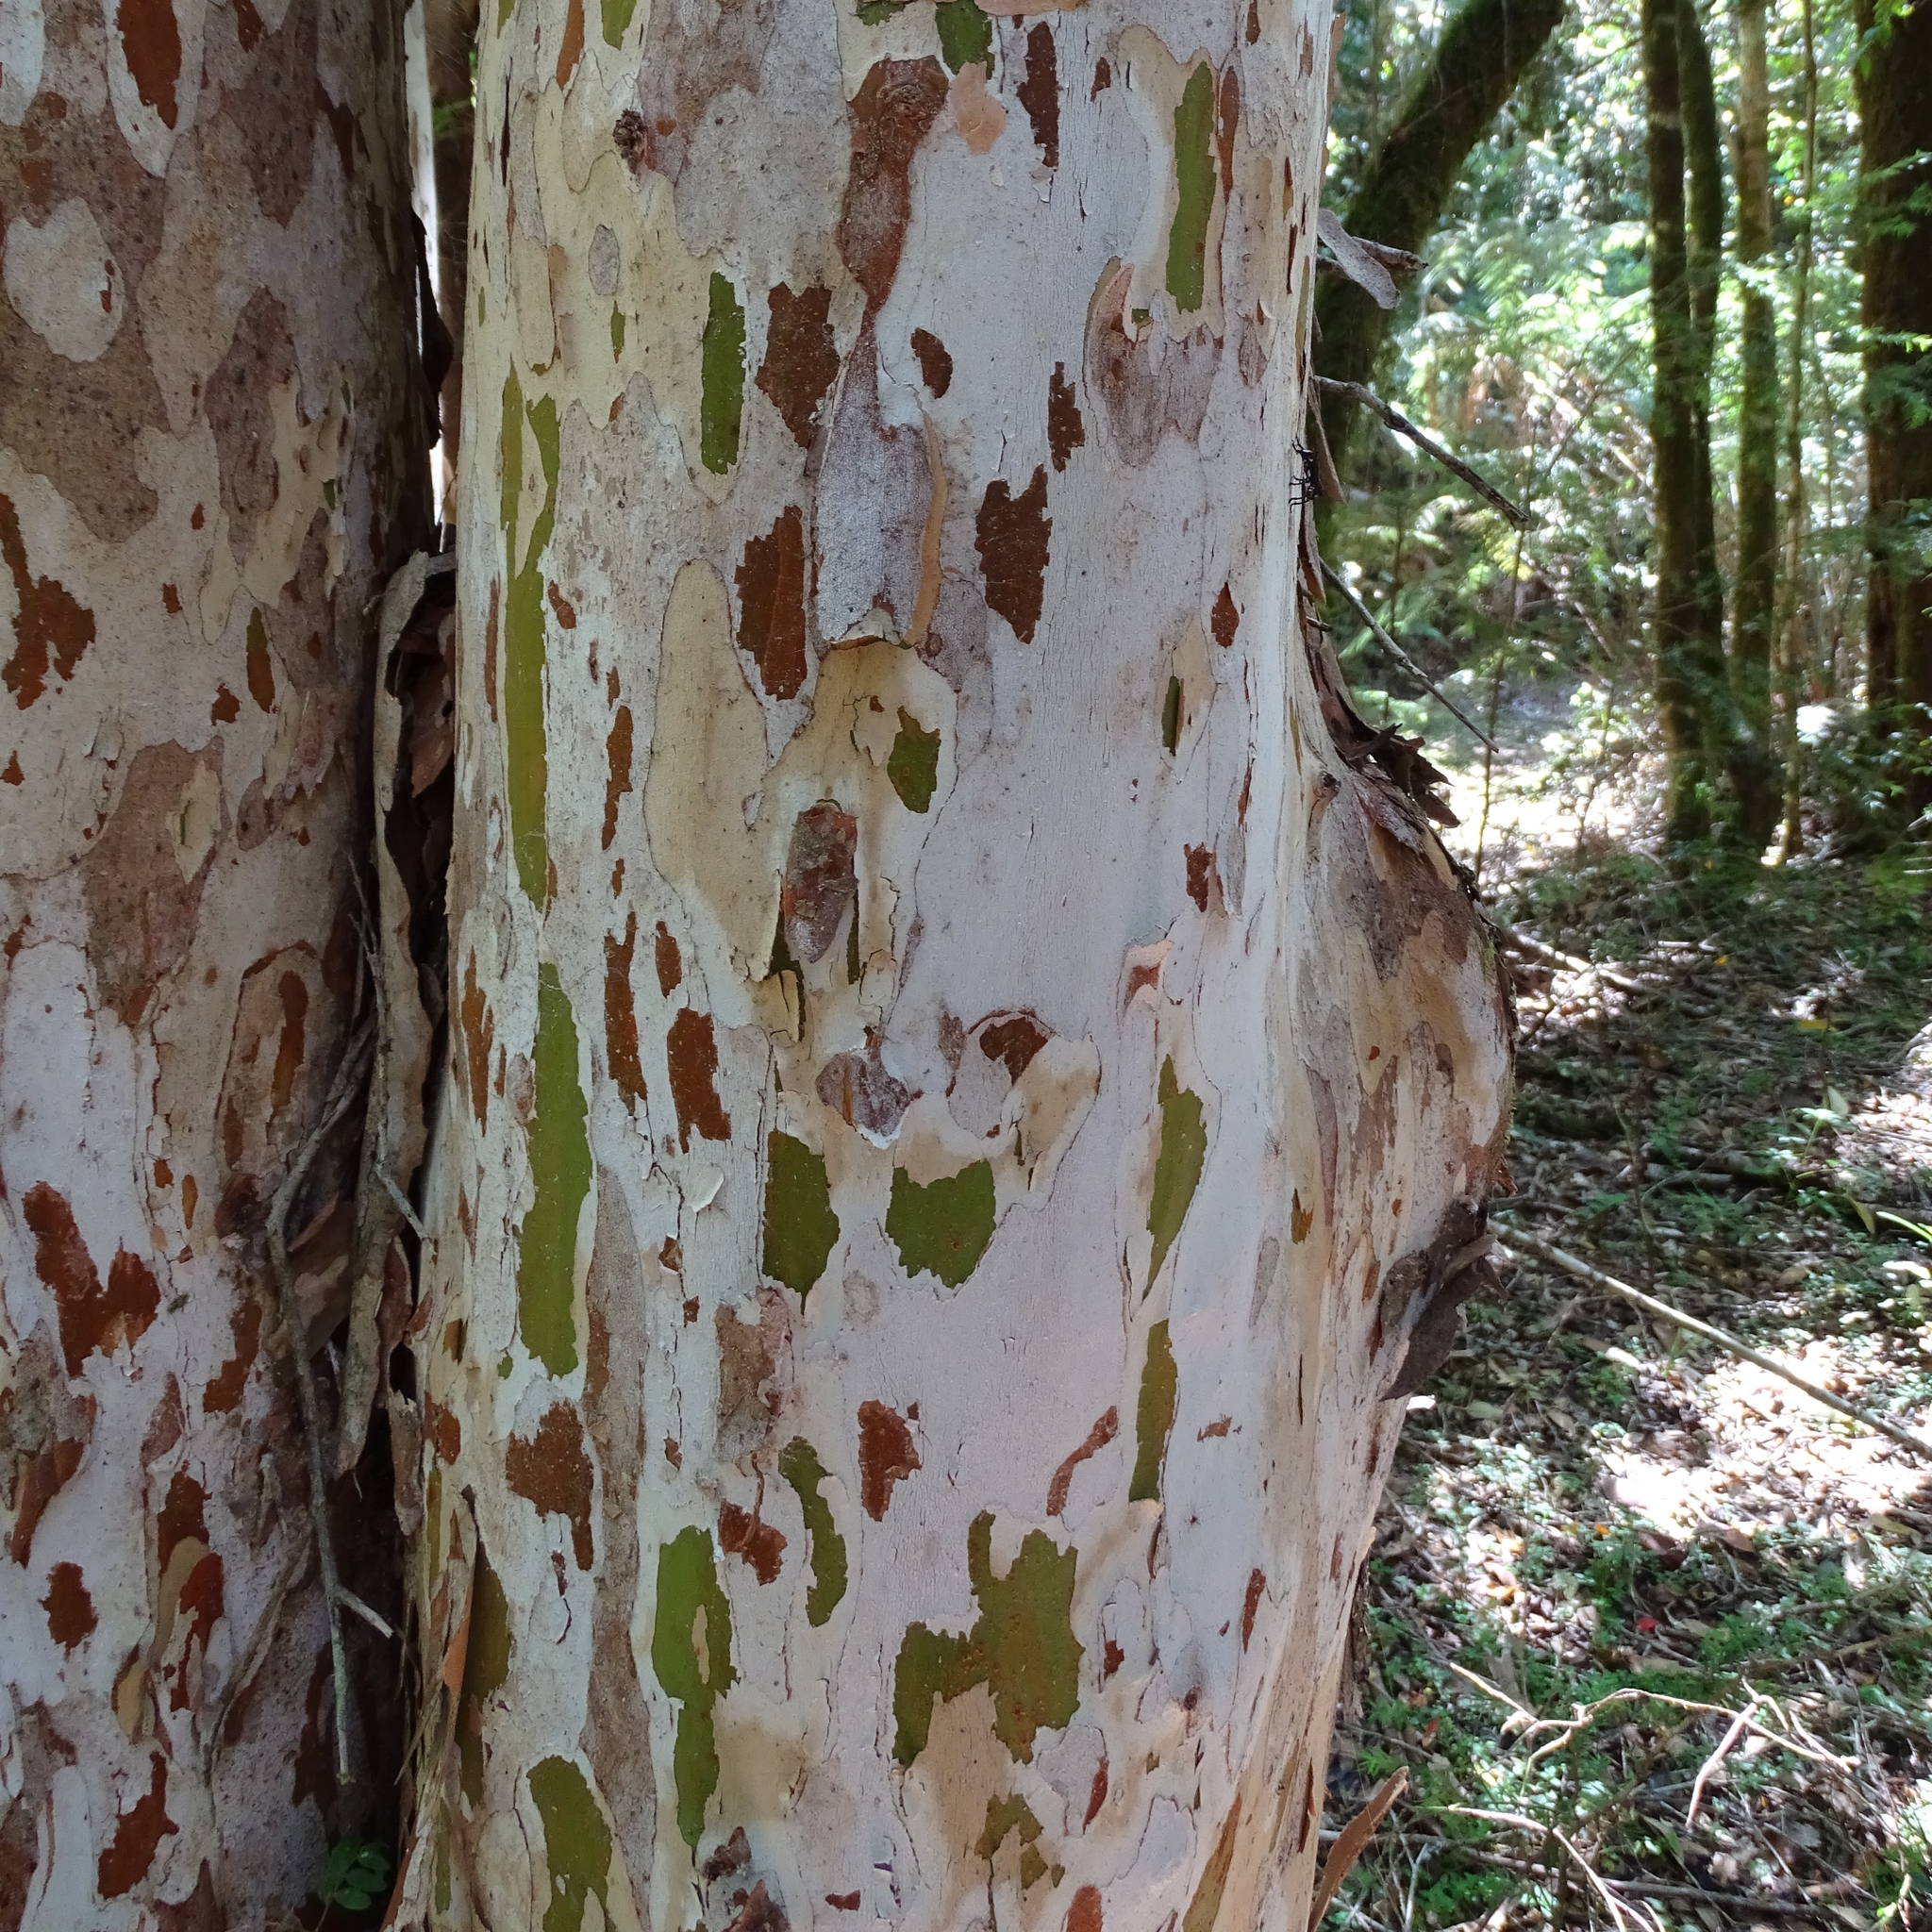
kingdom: Plantae
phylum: Tracheophyta
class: Magnoliopsida
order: Myrtales
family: Myrtaceae
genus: Amomyrtus
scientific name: Amomyrtus meli
